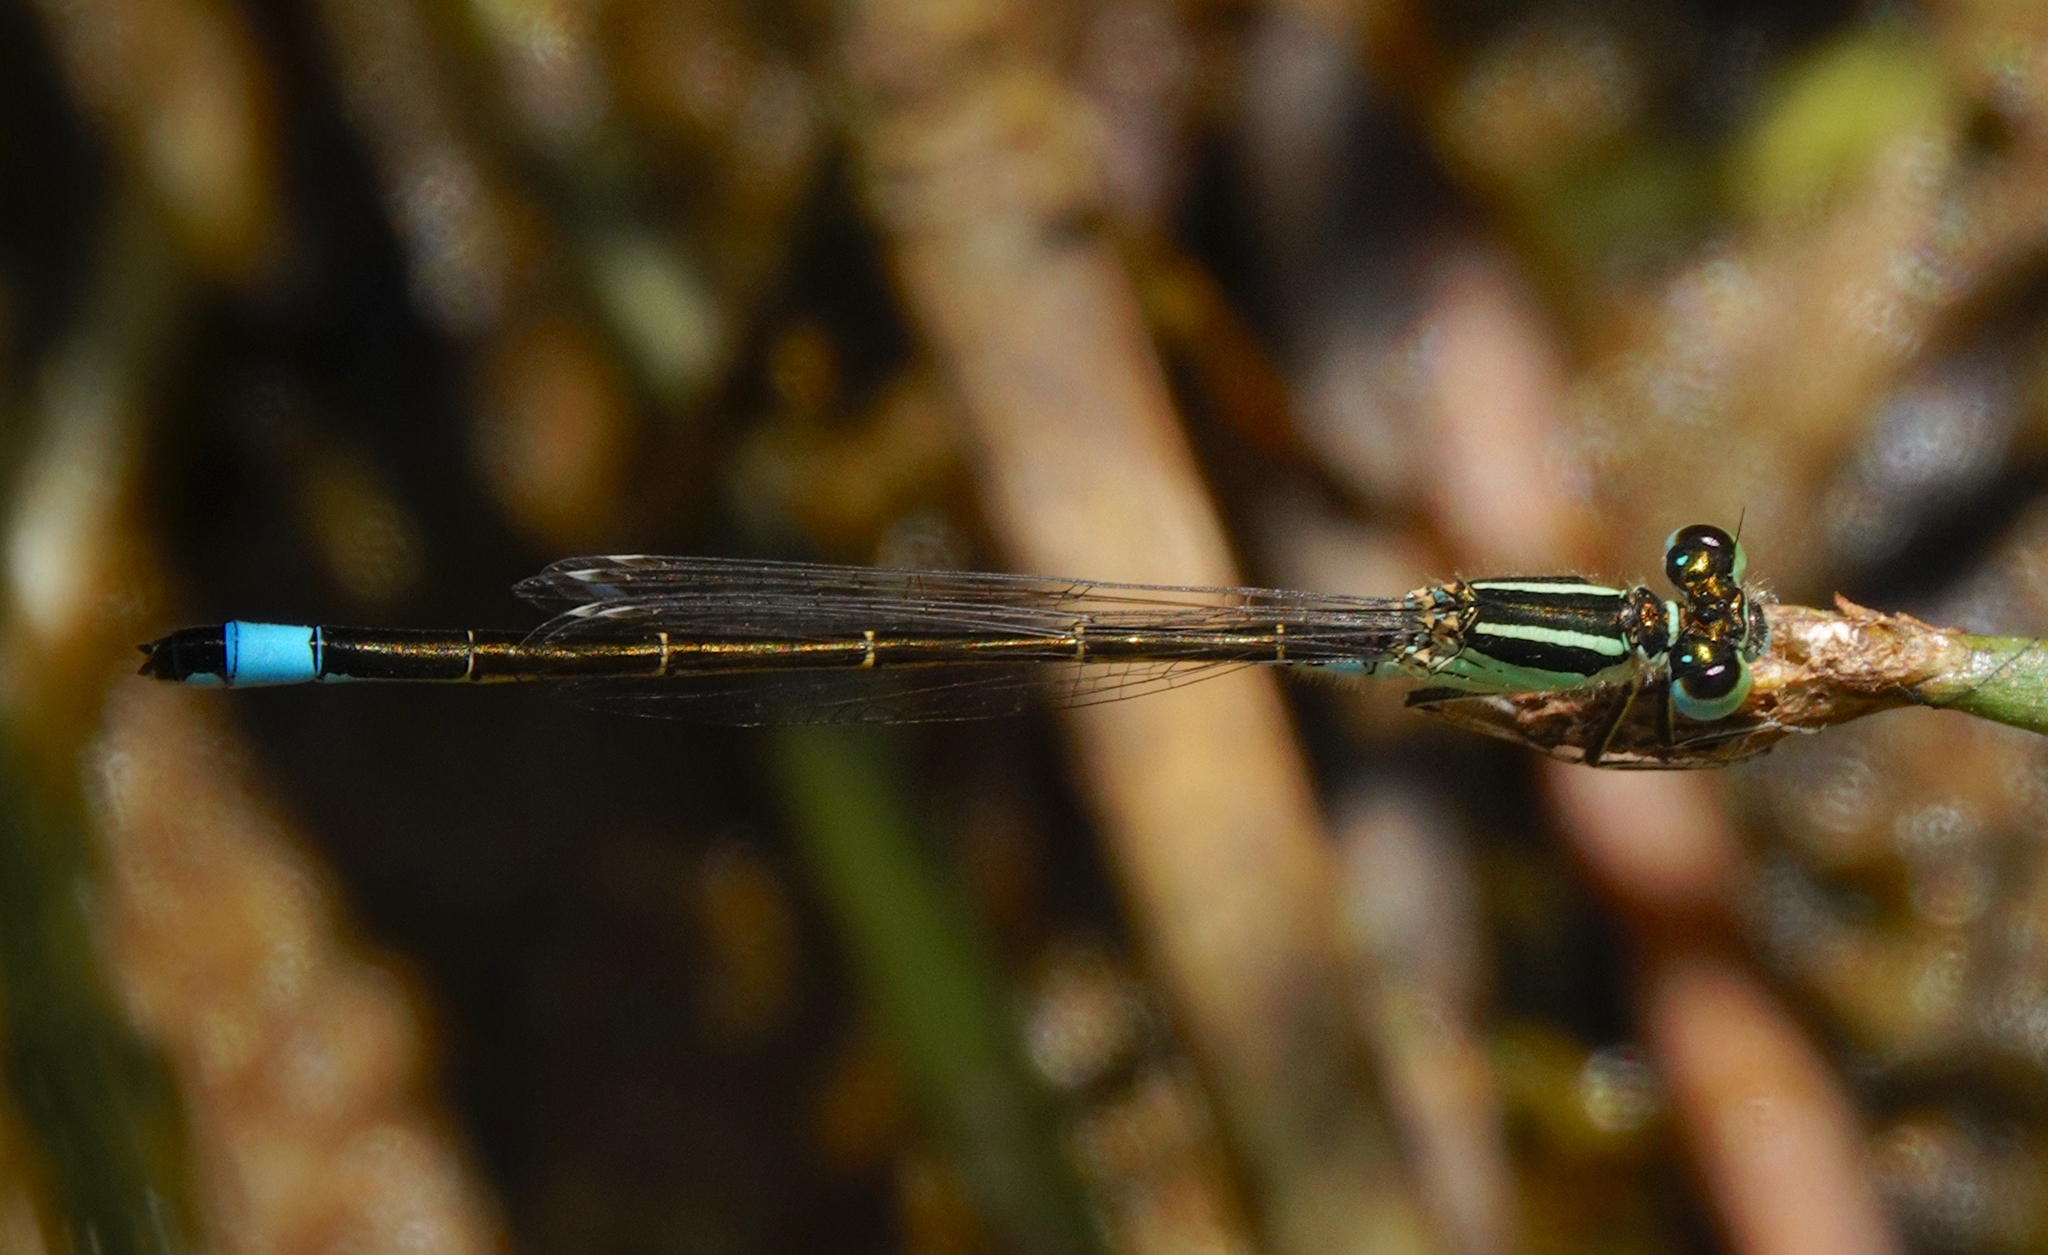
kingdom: Animalia
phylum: Arthropoda
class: Insecta
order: Odonata
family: Coenagrionidae
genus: Ischnura
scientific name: Ischnura graellsii
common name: Iberian bluetail
